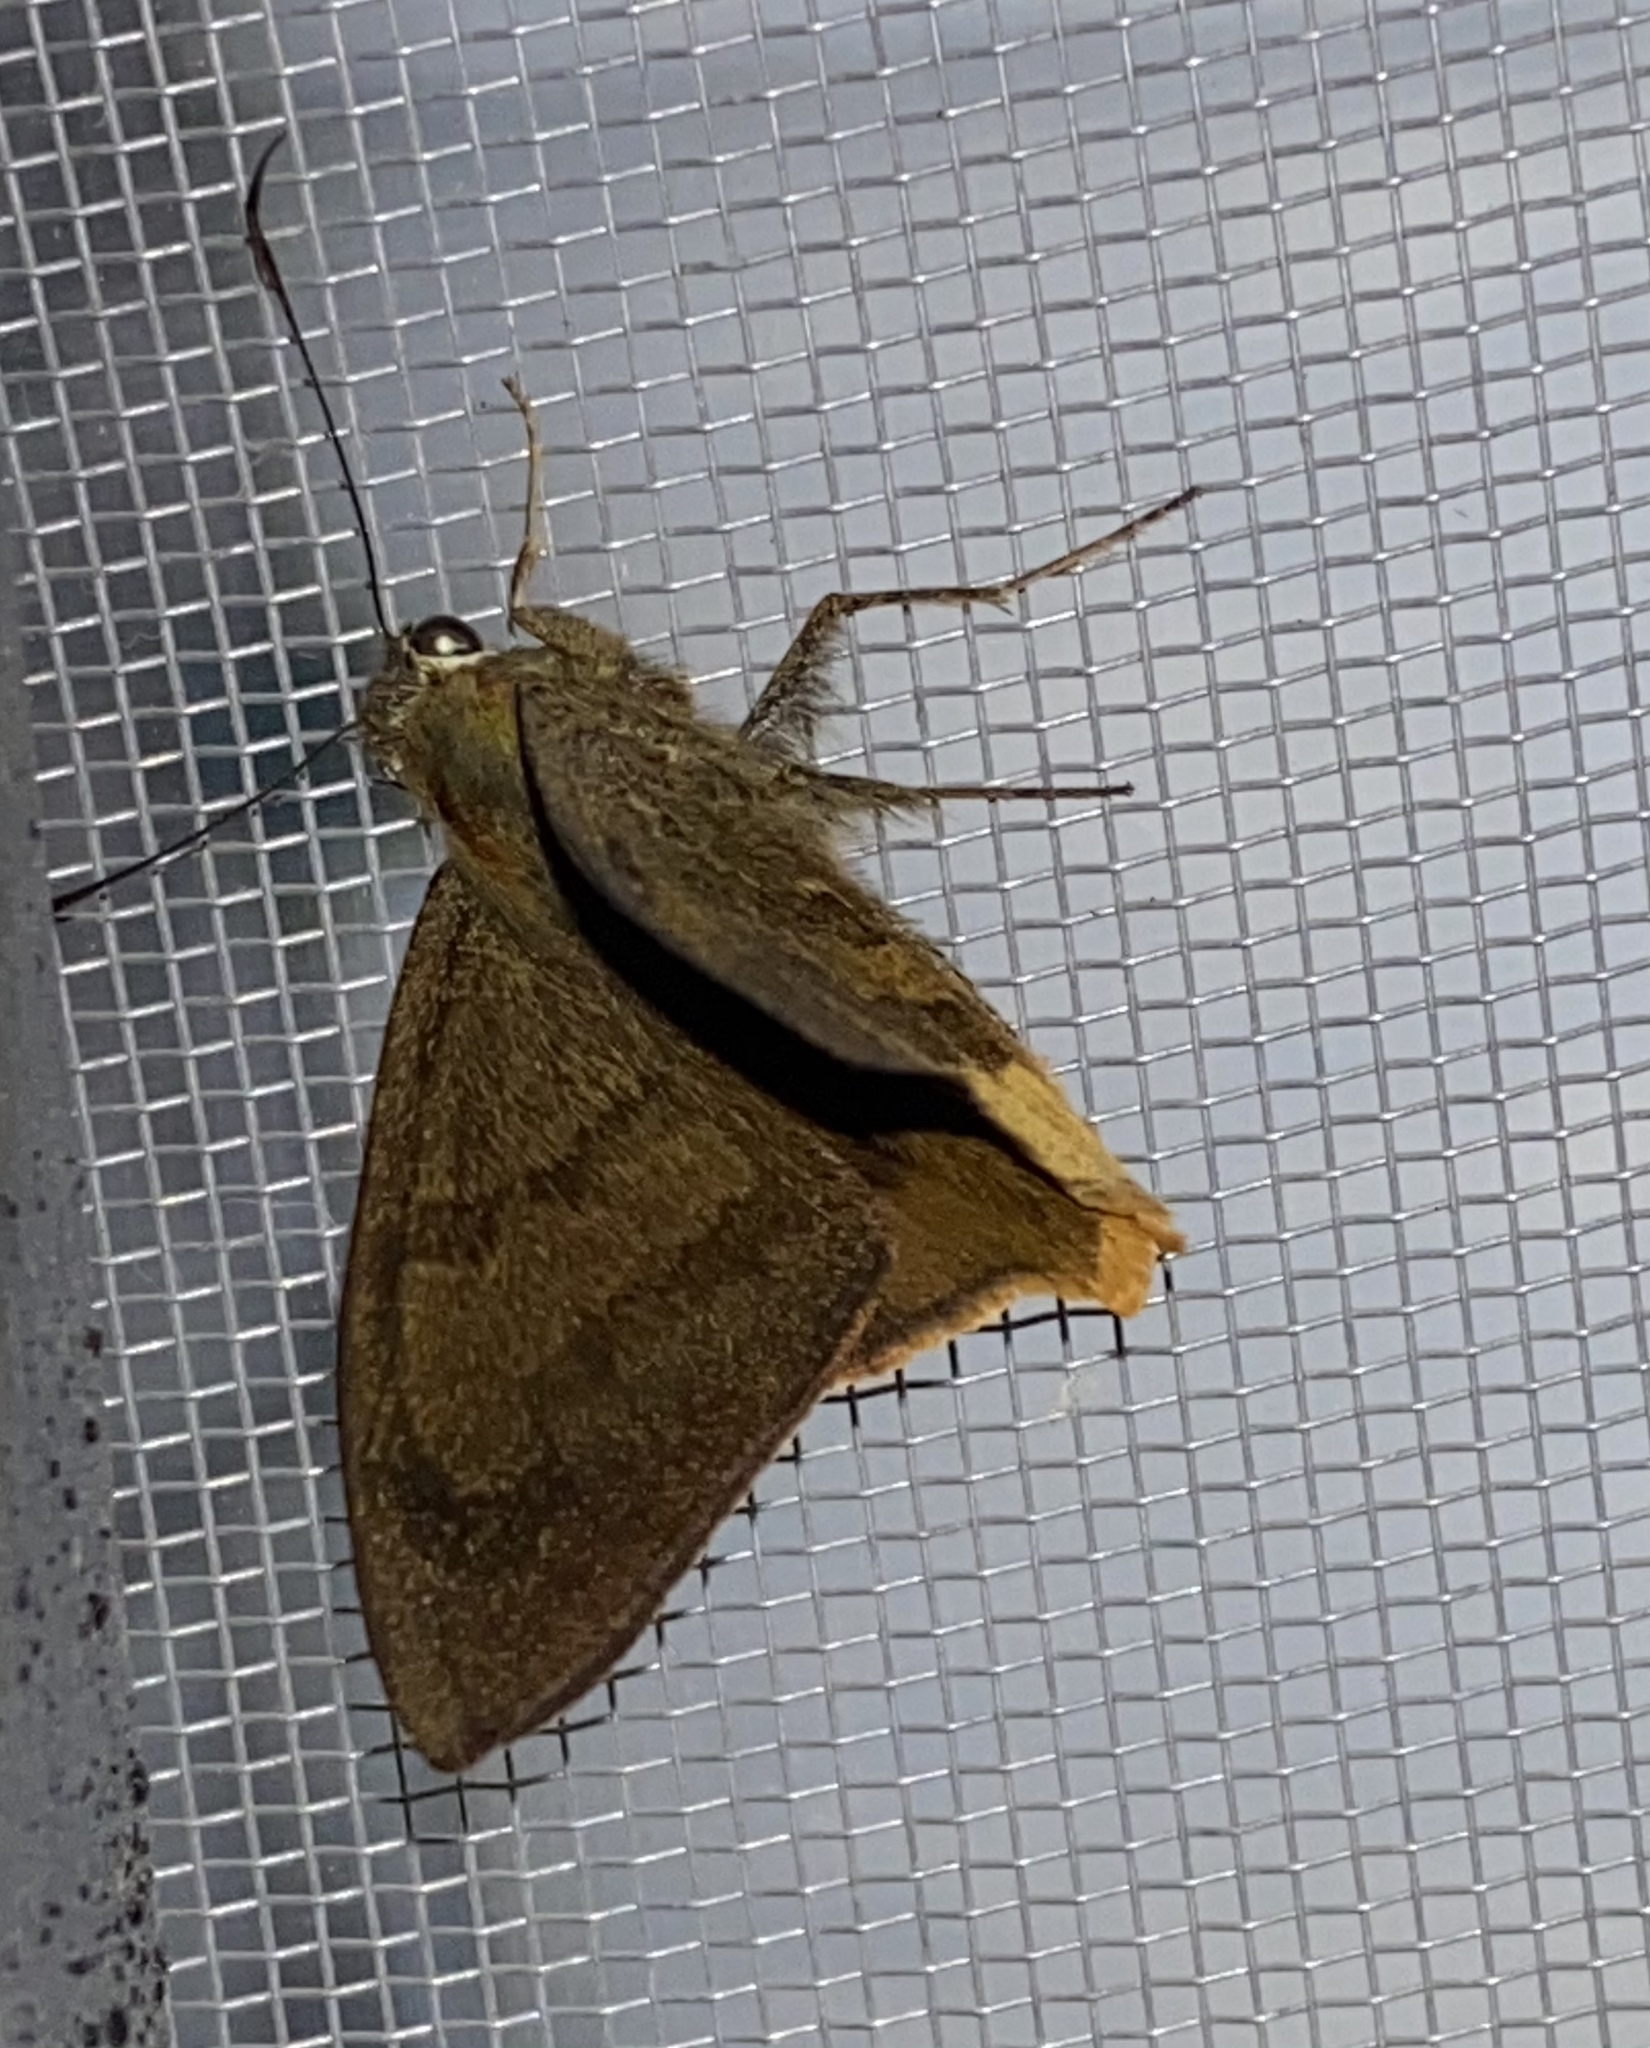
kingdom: Animalia
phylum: Arthropoda
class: Insecta
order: Lepidoptera
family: Hesperiidae
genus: Astraptes
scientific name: Astraptes anaphus
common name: Yellow-tipped flasher
